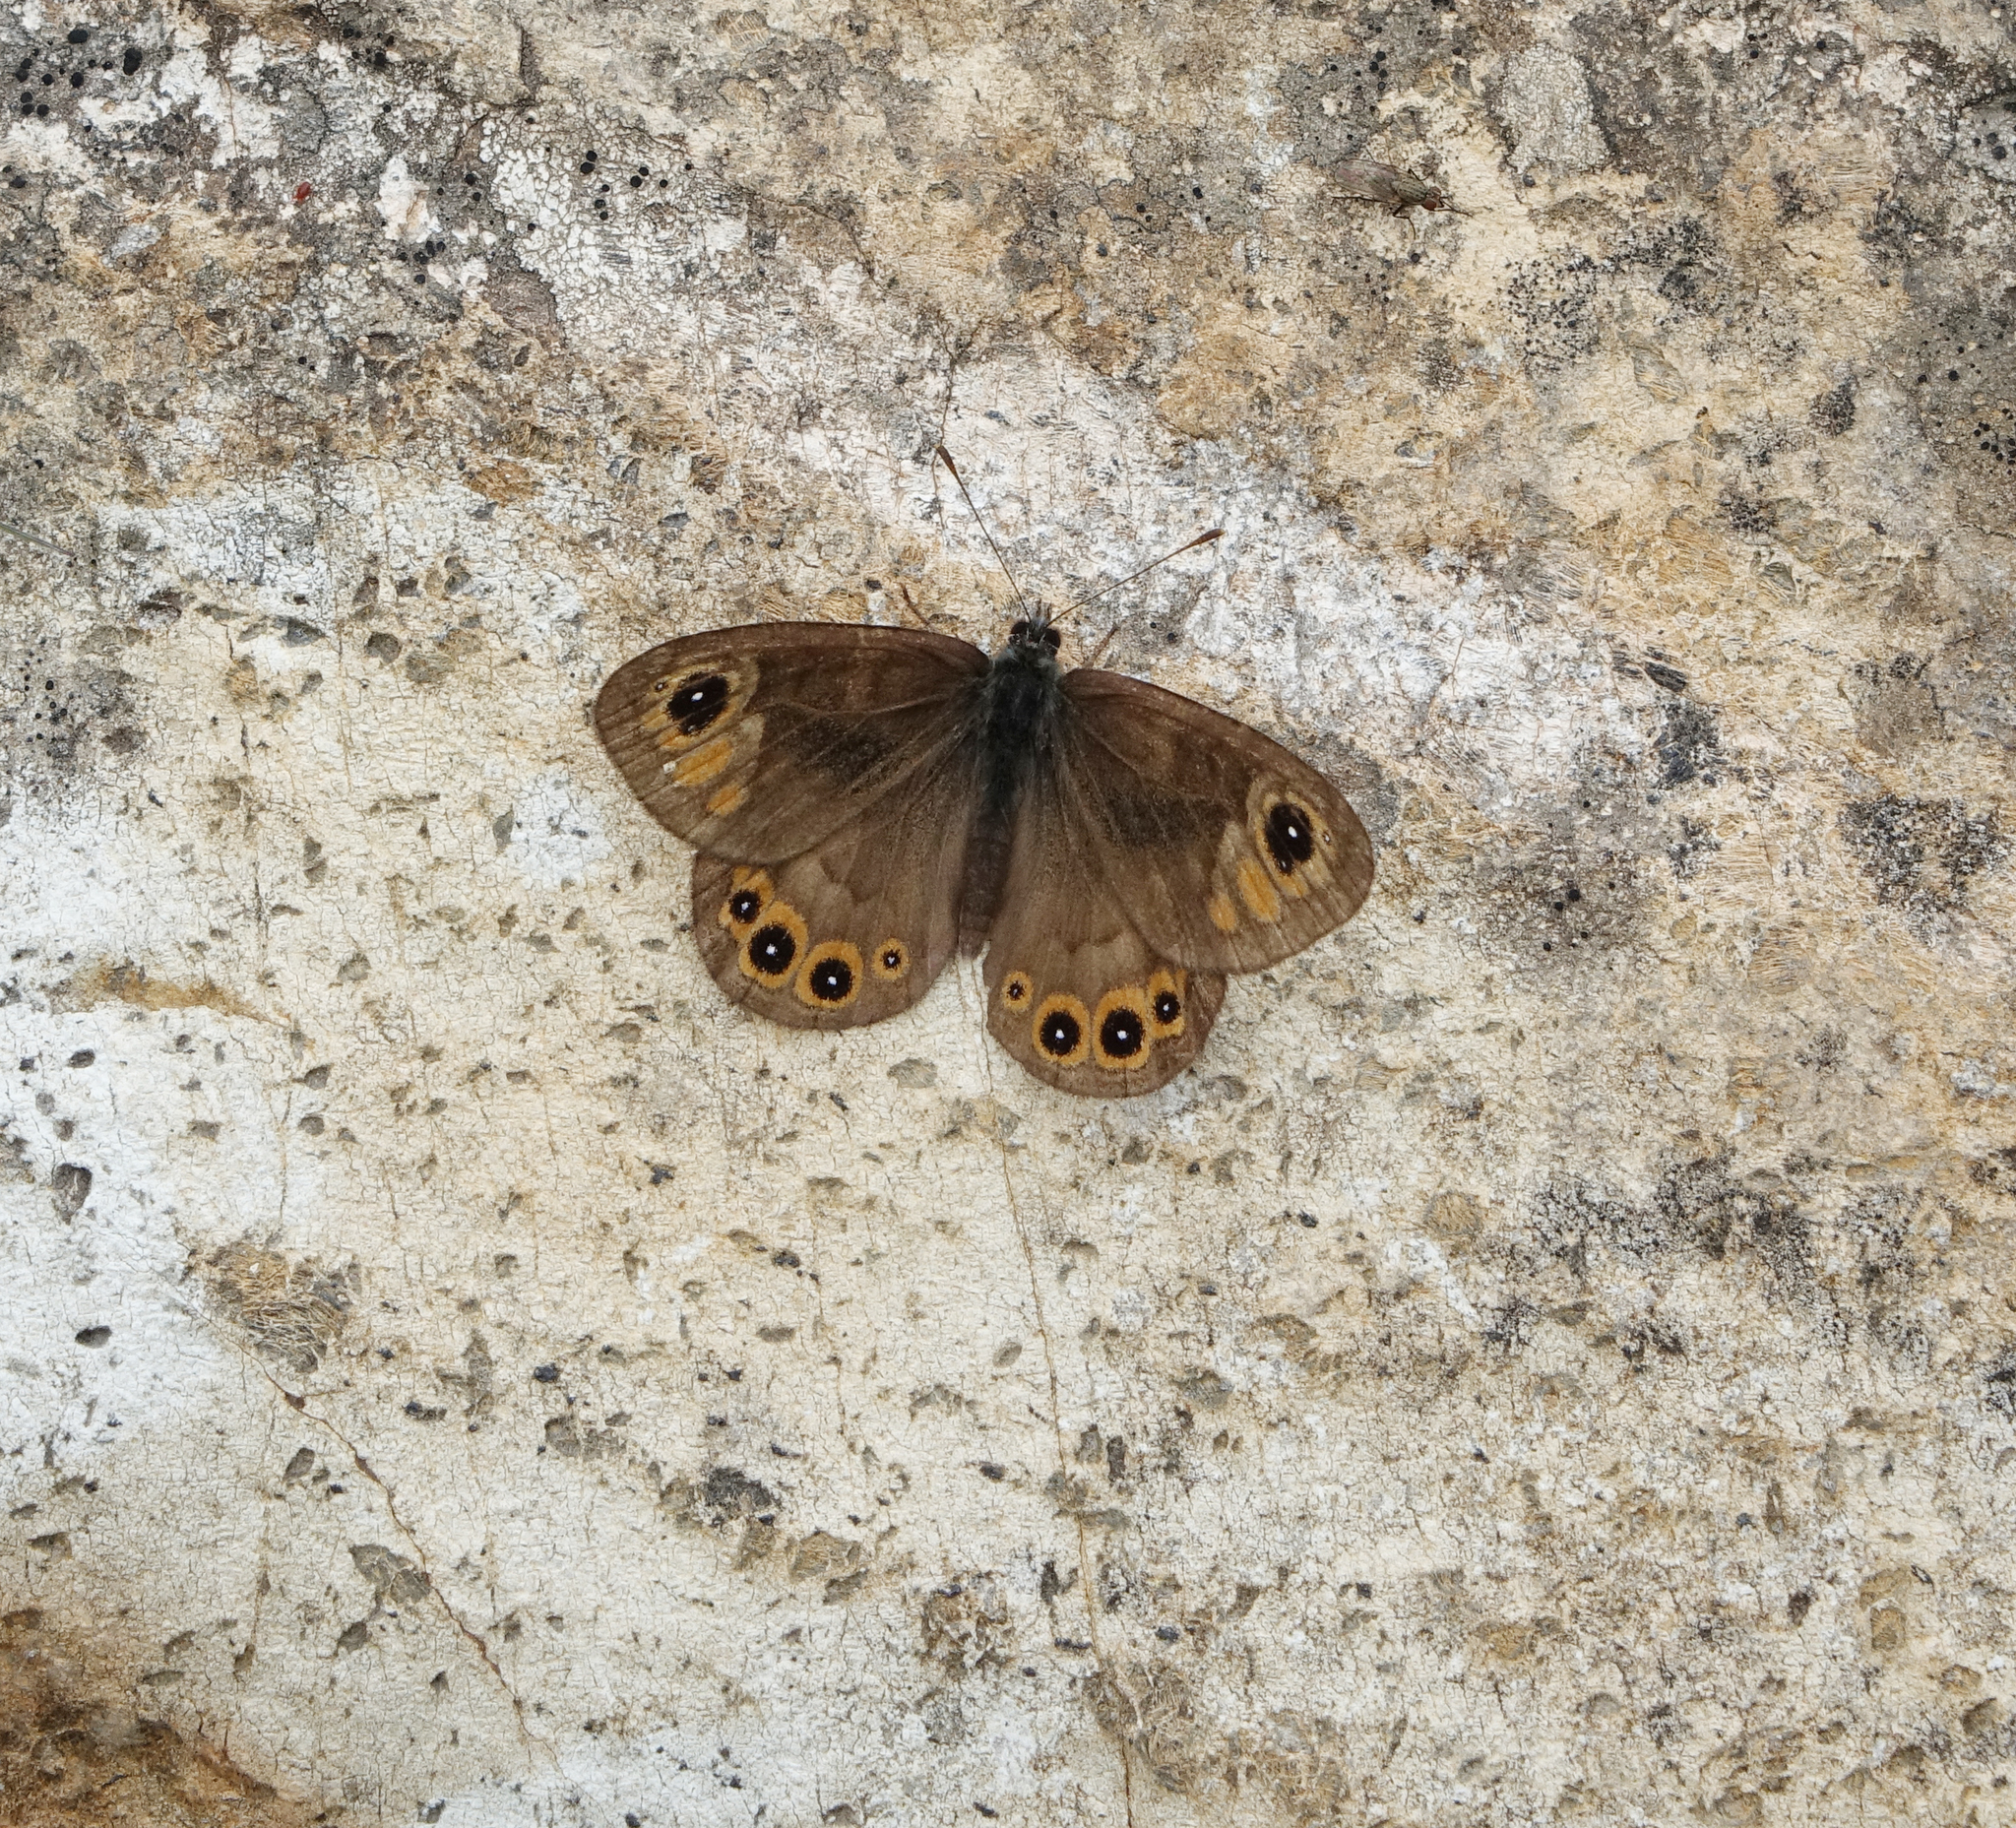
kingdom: Animalia
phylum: Arthropoda
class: Insecta
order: Lepidoptera
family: Nymphalidae
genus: Pararge
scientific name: Pararge petropolitana
